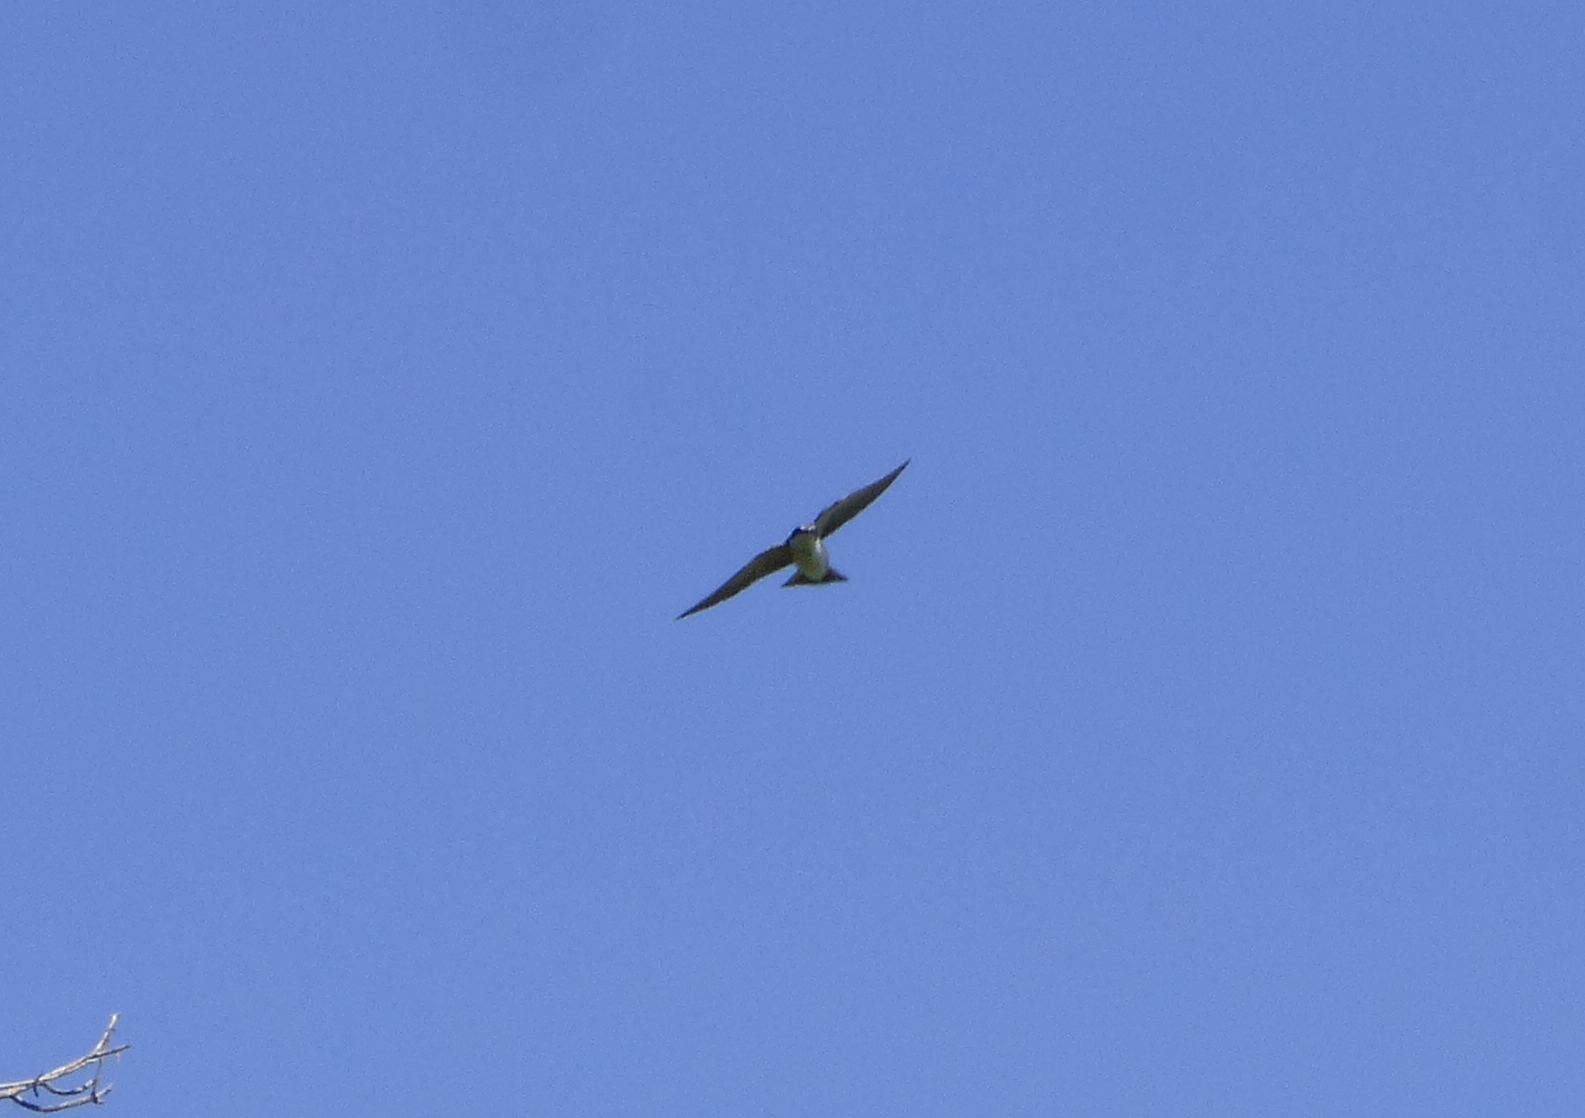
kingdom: Animalia
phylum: Chordata
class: Aves
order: Passeriformes
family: Hirundinidae
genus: Tachycineta
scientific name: Tachycineta leucorrhoa
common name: White-rumped swallow
